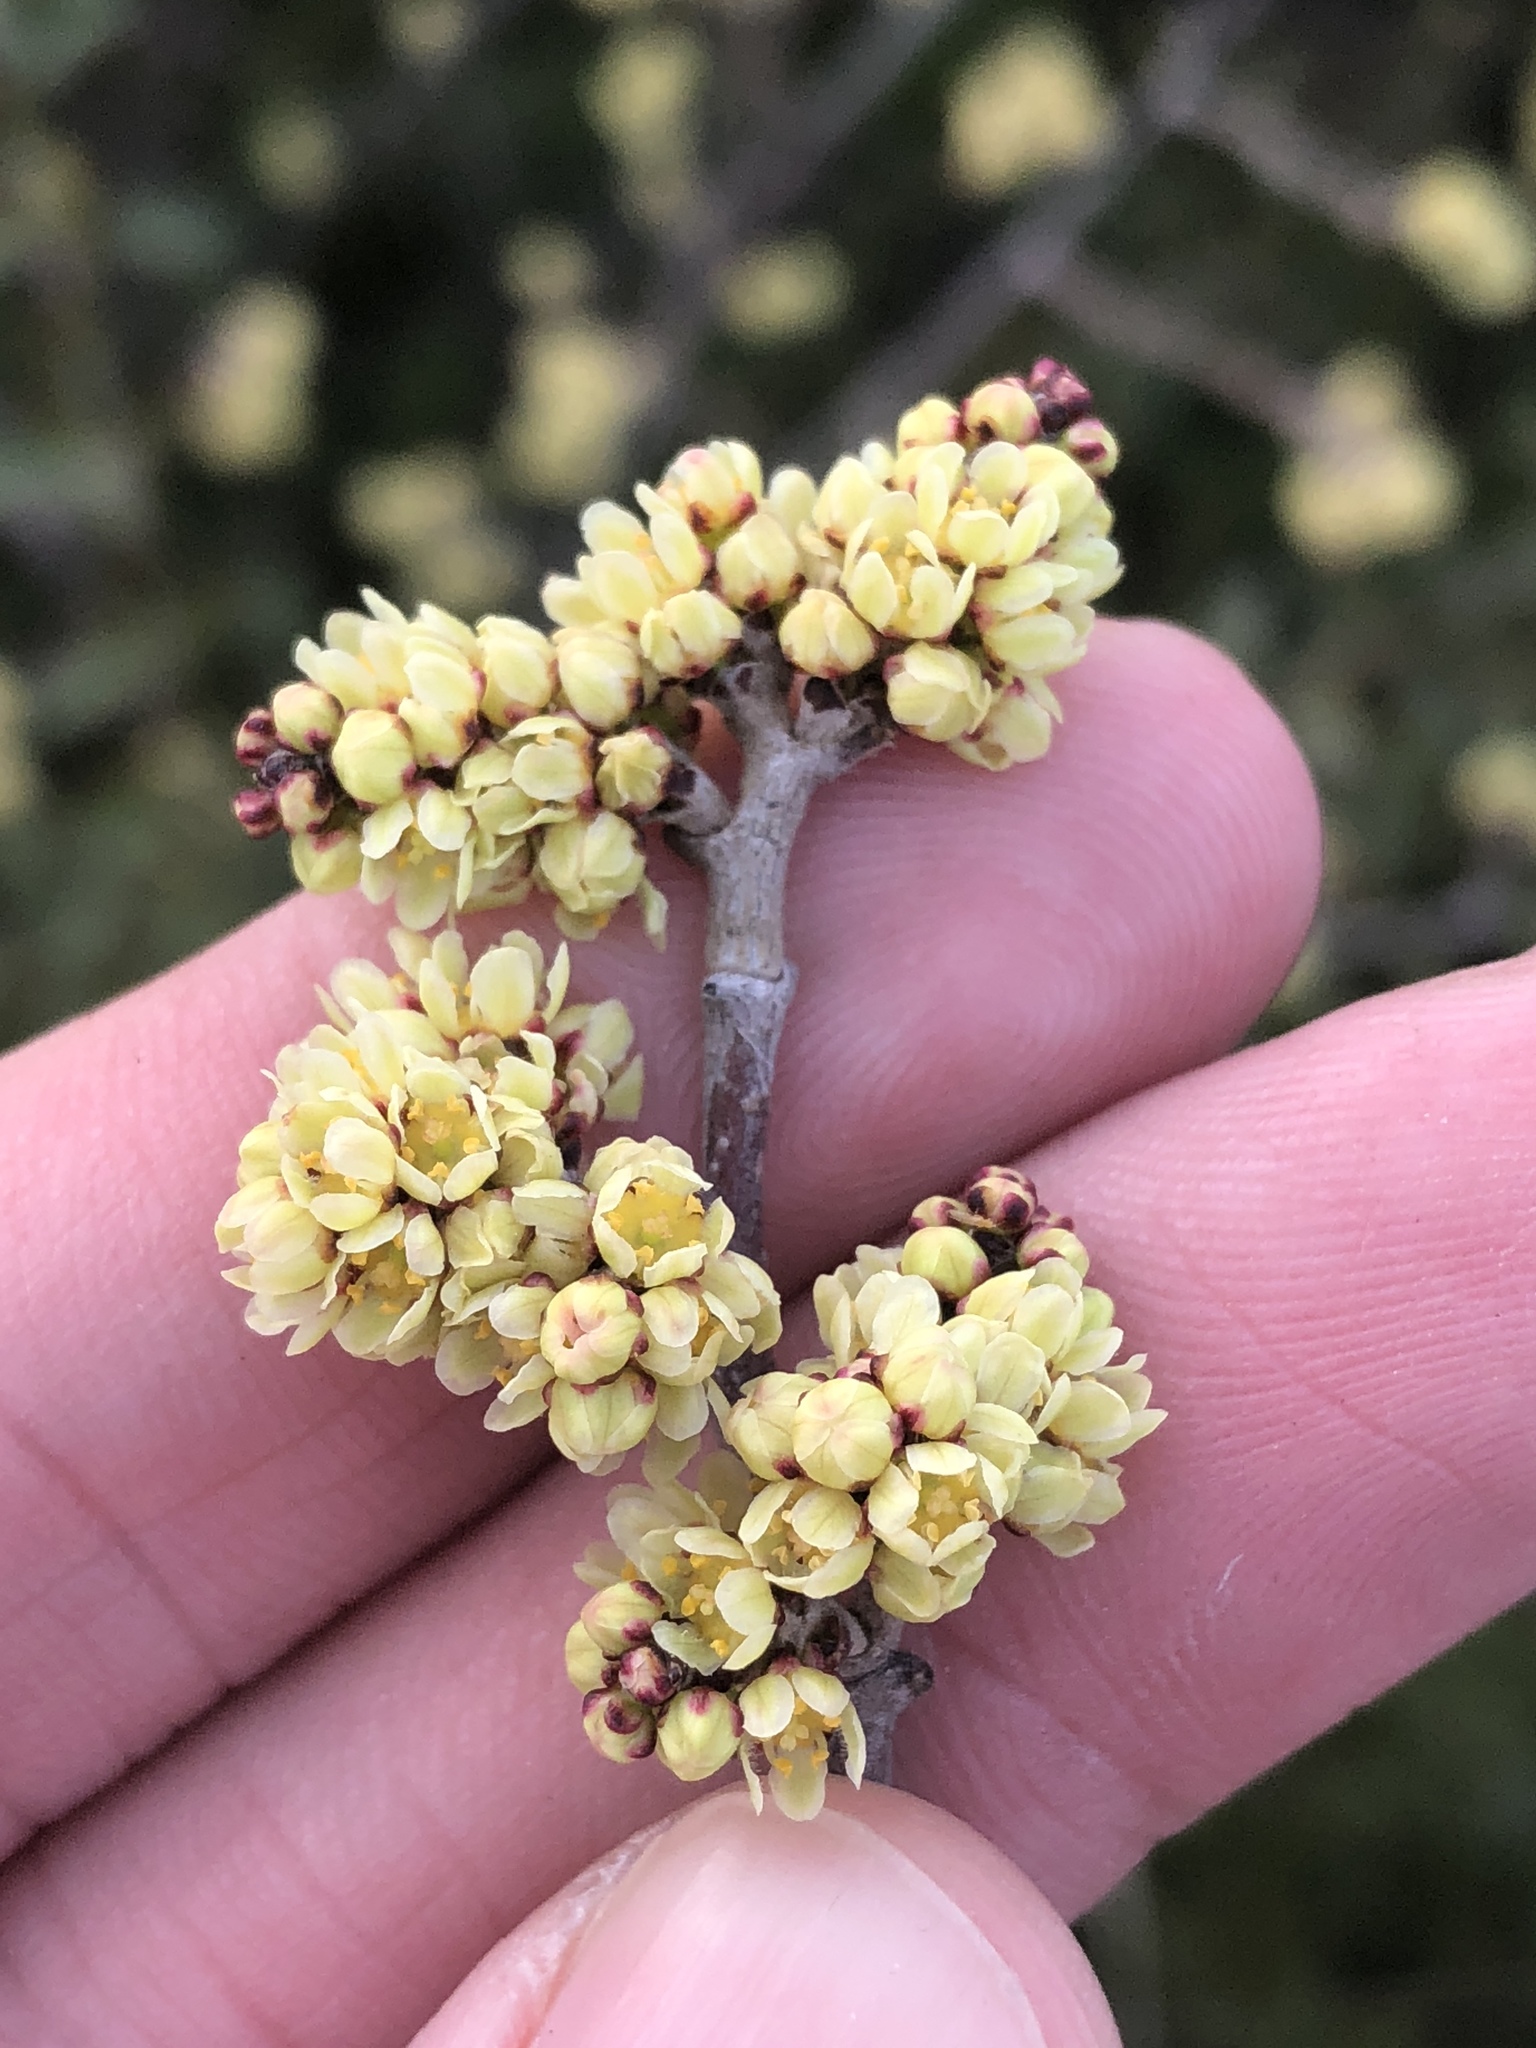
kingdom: Plantae
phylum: Tracheophyta
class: Magnoliopsida
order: Sapindales
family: Anacardiaceae
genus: Rhus
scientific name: Rhus aromatica
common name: Aromatic sumac
